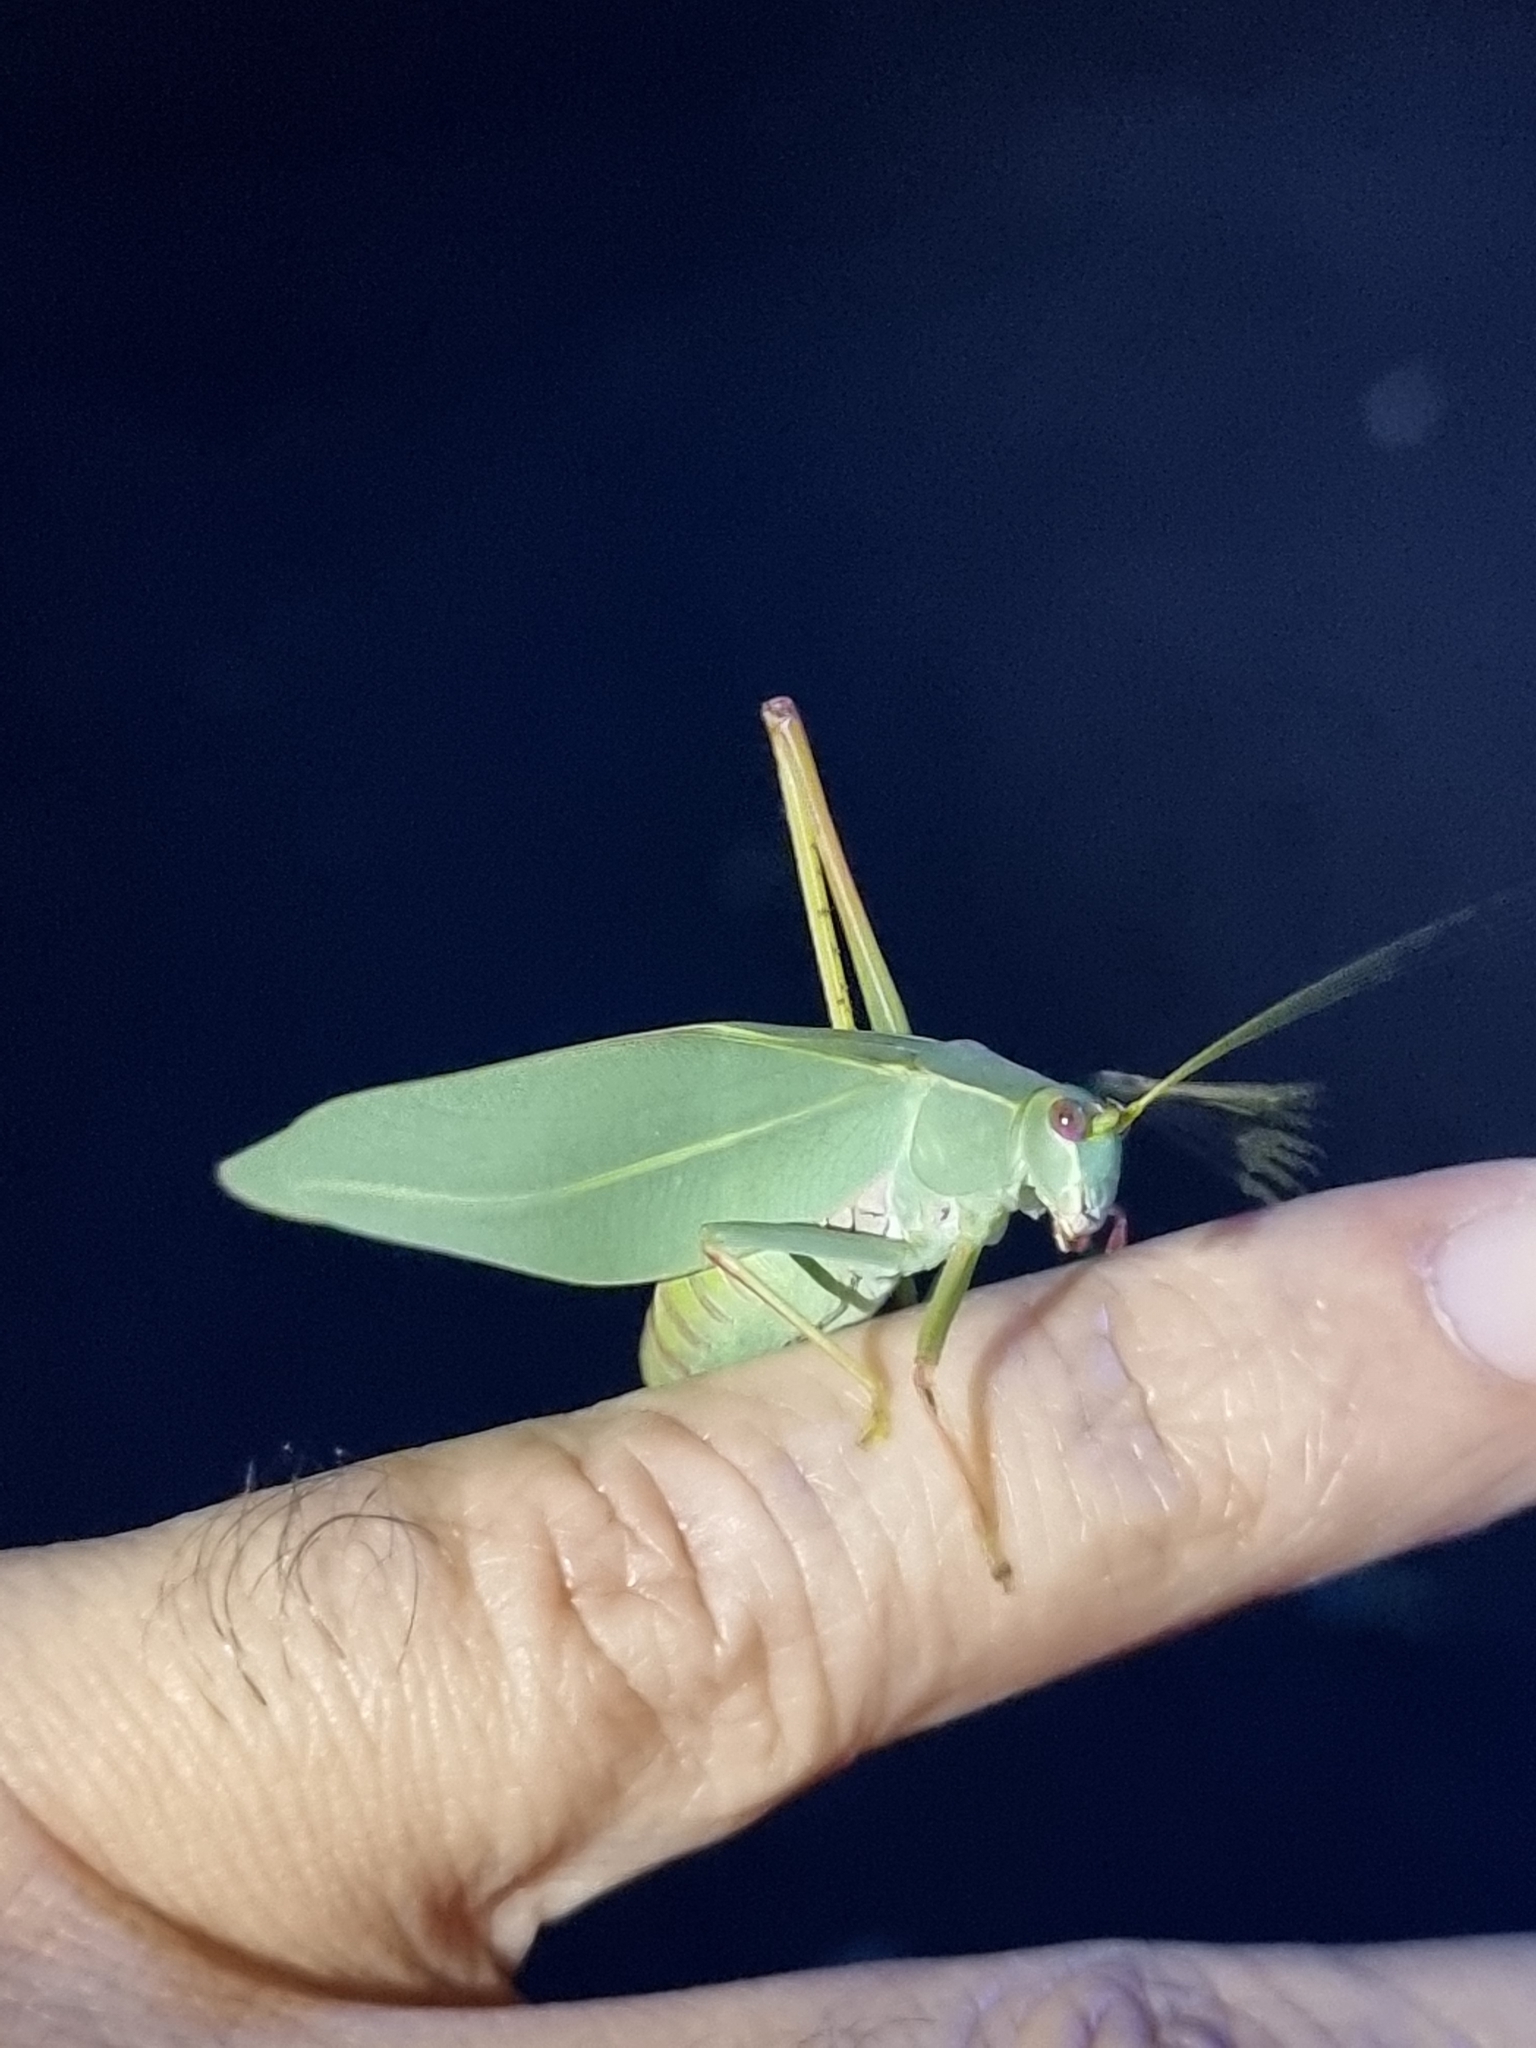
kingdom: Animalia
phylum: Arthropoda
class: Insecta
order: Orthoptera
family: Tettigoniidae
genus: Torbia
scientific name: Torbia viridissima
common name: Non-predaceous gum leaf katydid
